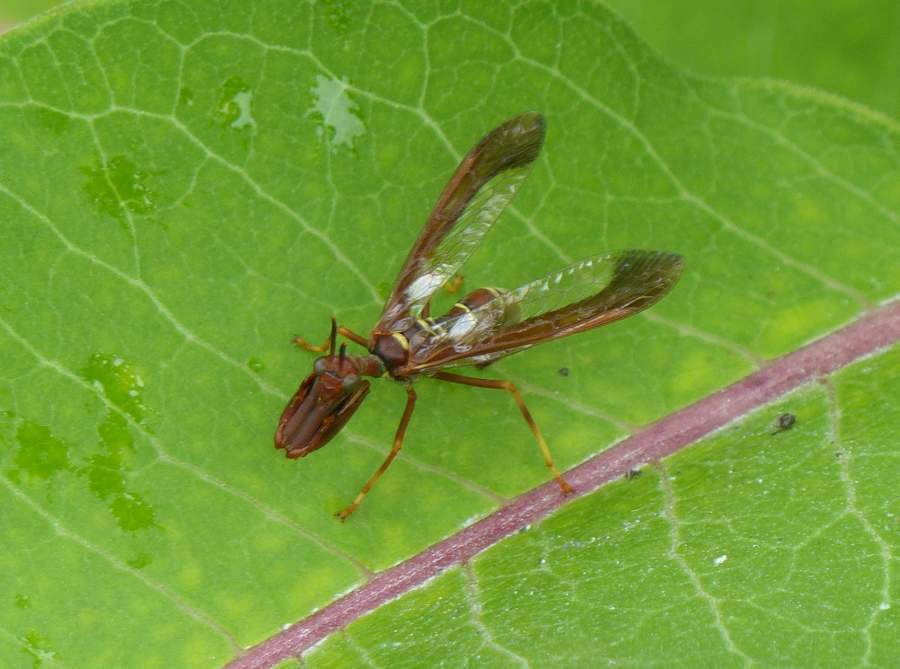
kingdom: Animalia
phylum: Arthropoda
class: Insecta
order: Neuroptera
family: Mantispidae
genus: Climaciella
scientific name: Climaciella brunnea
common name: Brown wasp mantidfly
